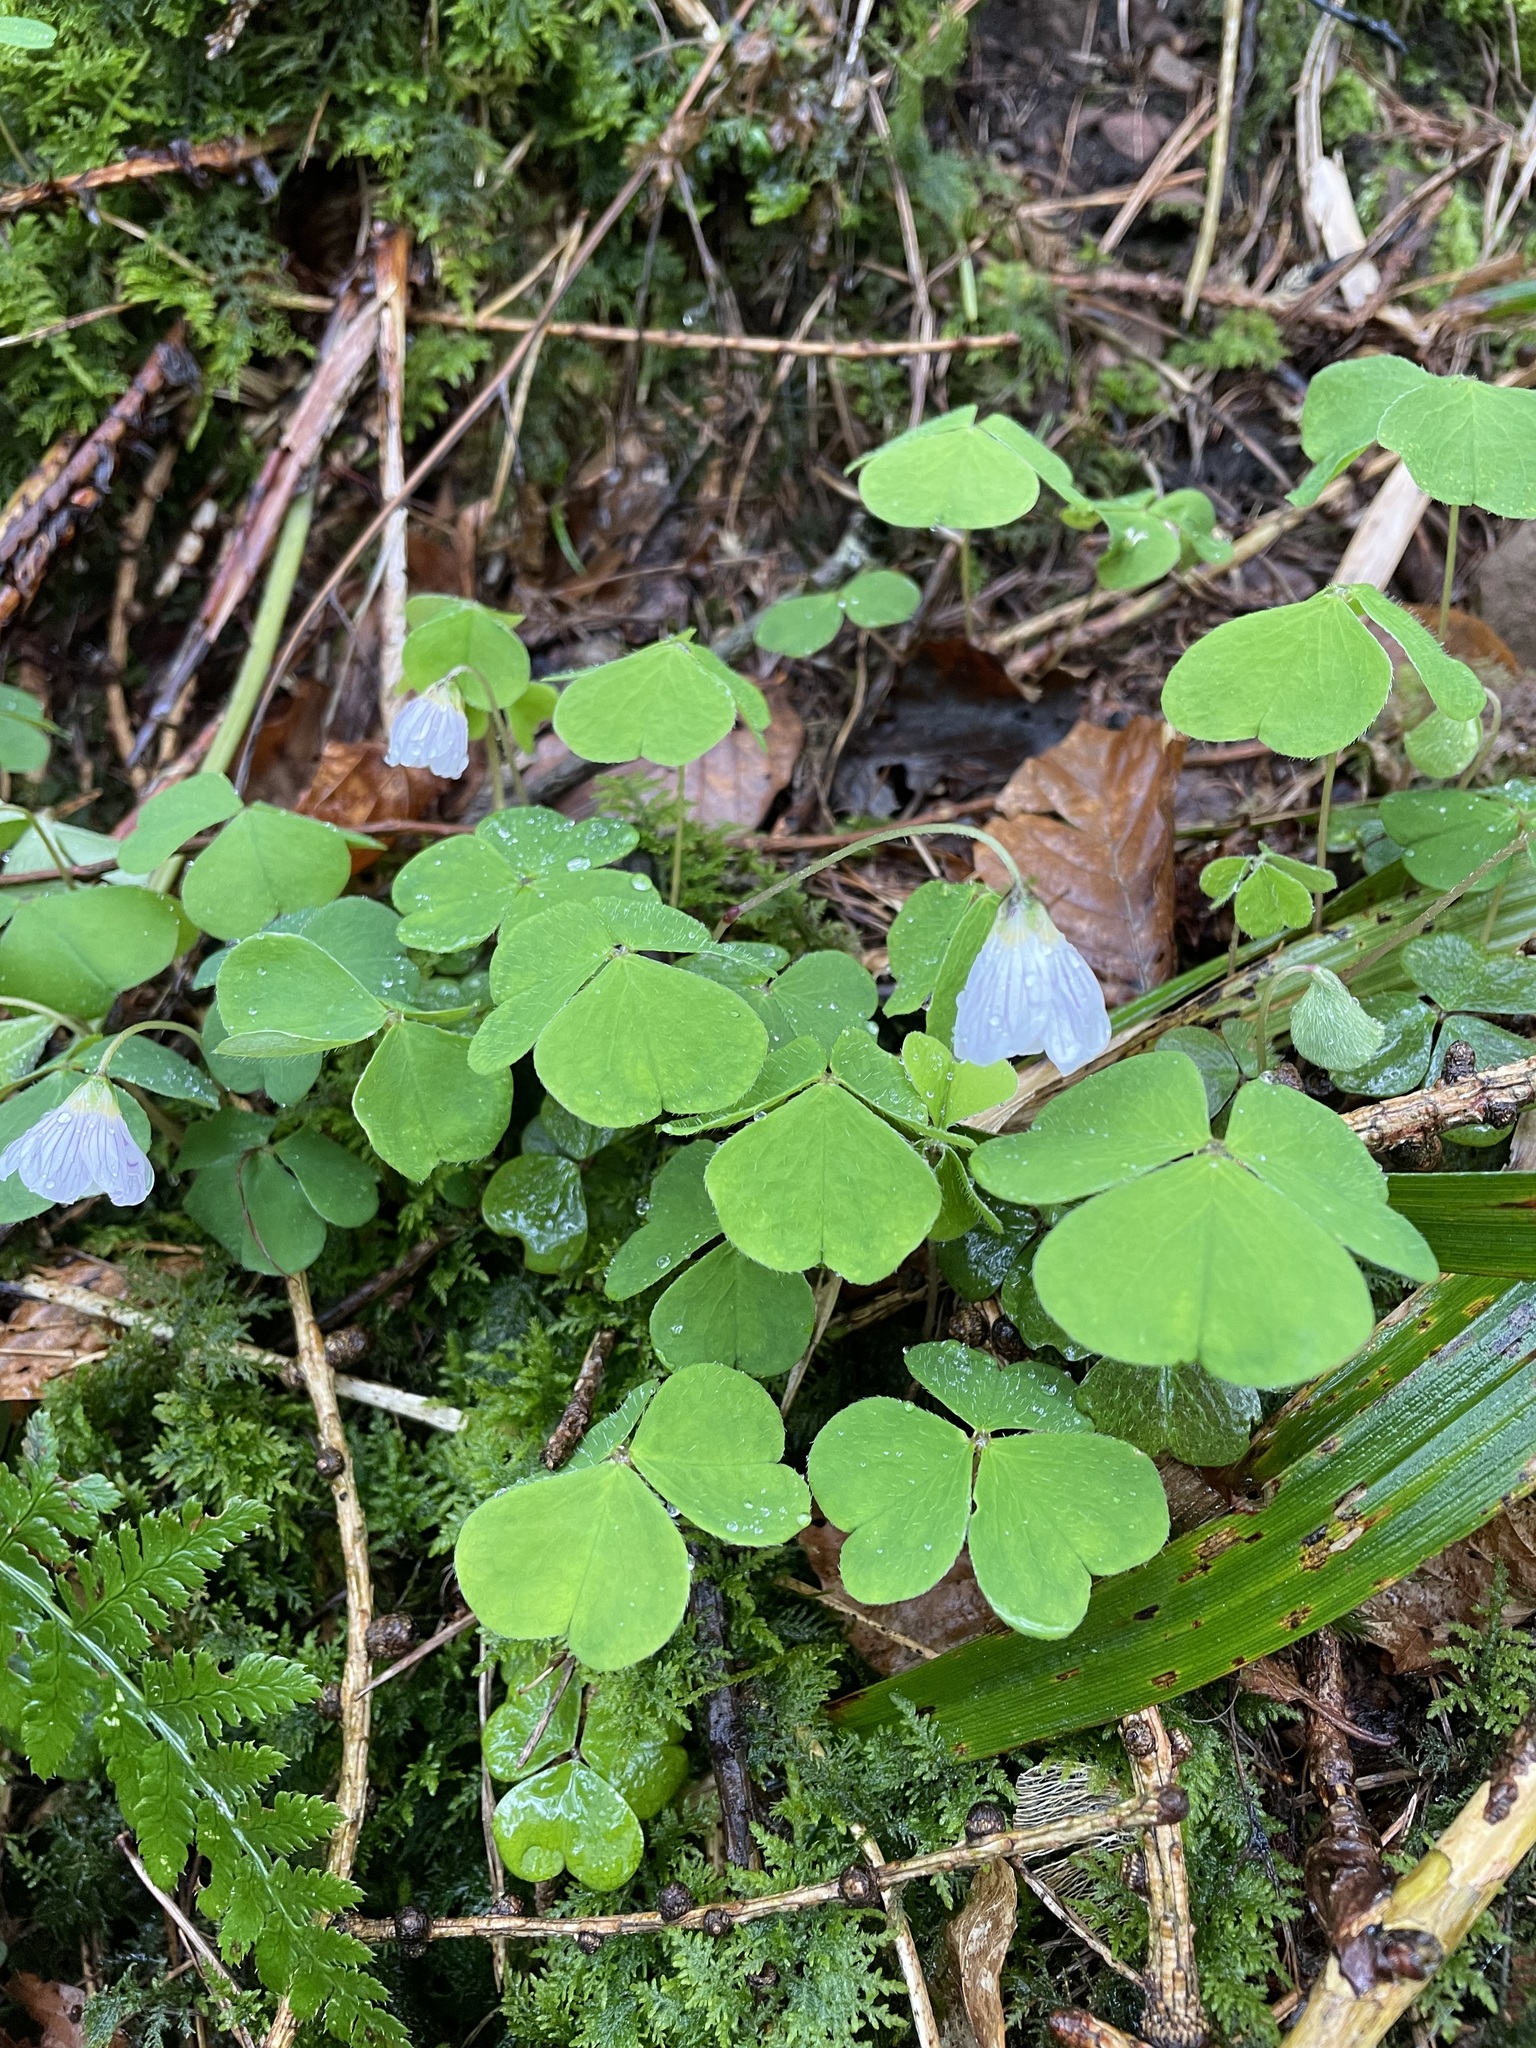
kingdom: Plantae
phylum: Tracheophyta
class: Magnoliopsida
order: Oxalidales
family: Oxalidaceae
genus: Oxalis
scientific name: Oxalis acetosella
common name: Wood-sorrel
